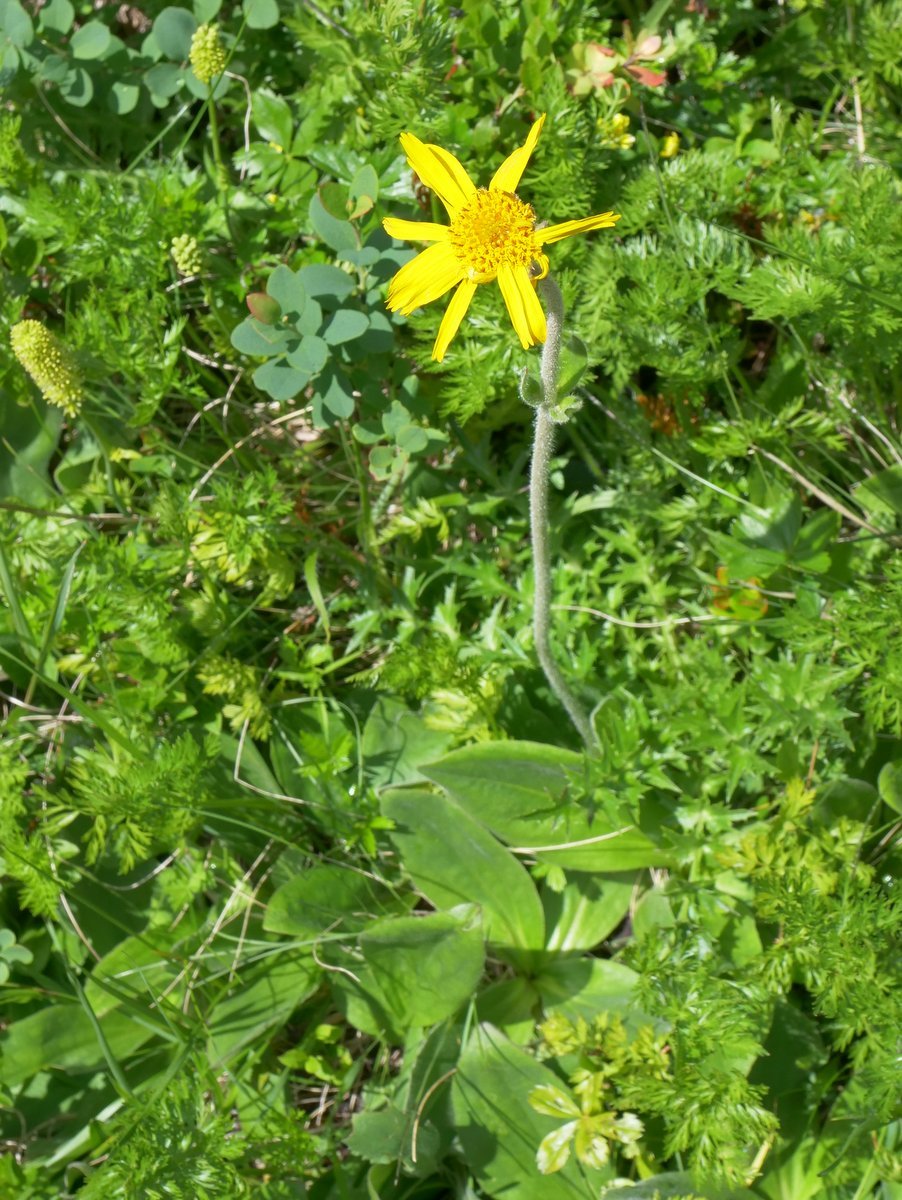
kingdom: Plantae
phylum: Tracheophyta
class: Magnoliopsida
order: Asterales
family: Asteraceae
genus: Arnica
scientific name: Arnica montana
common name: Leopard's bane
